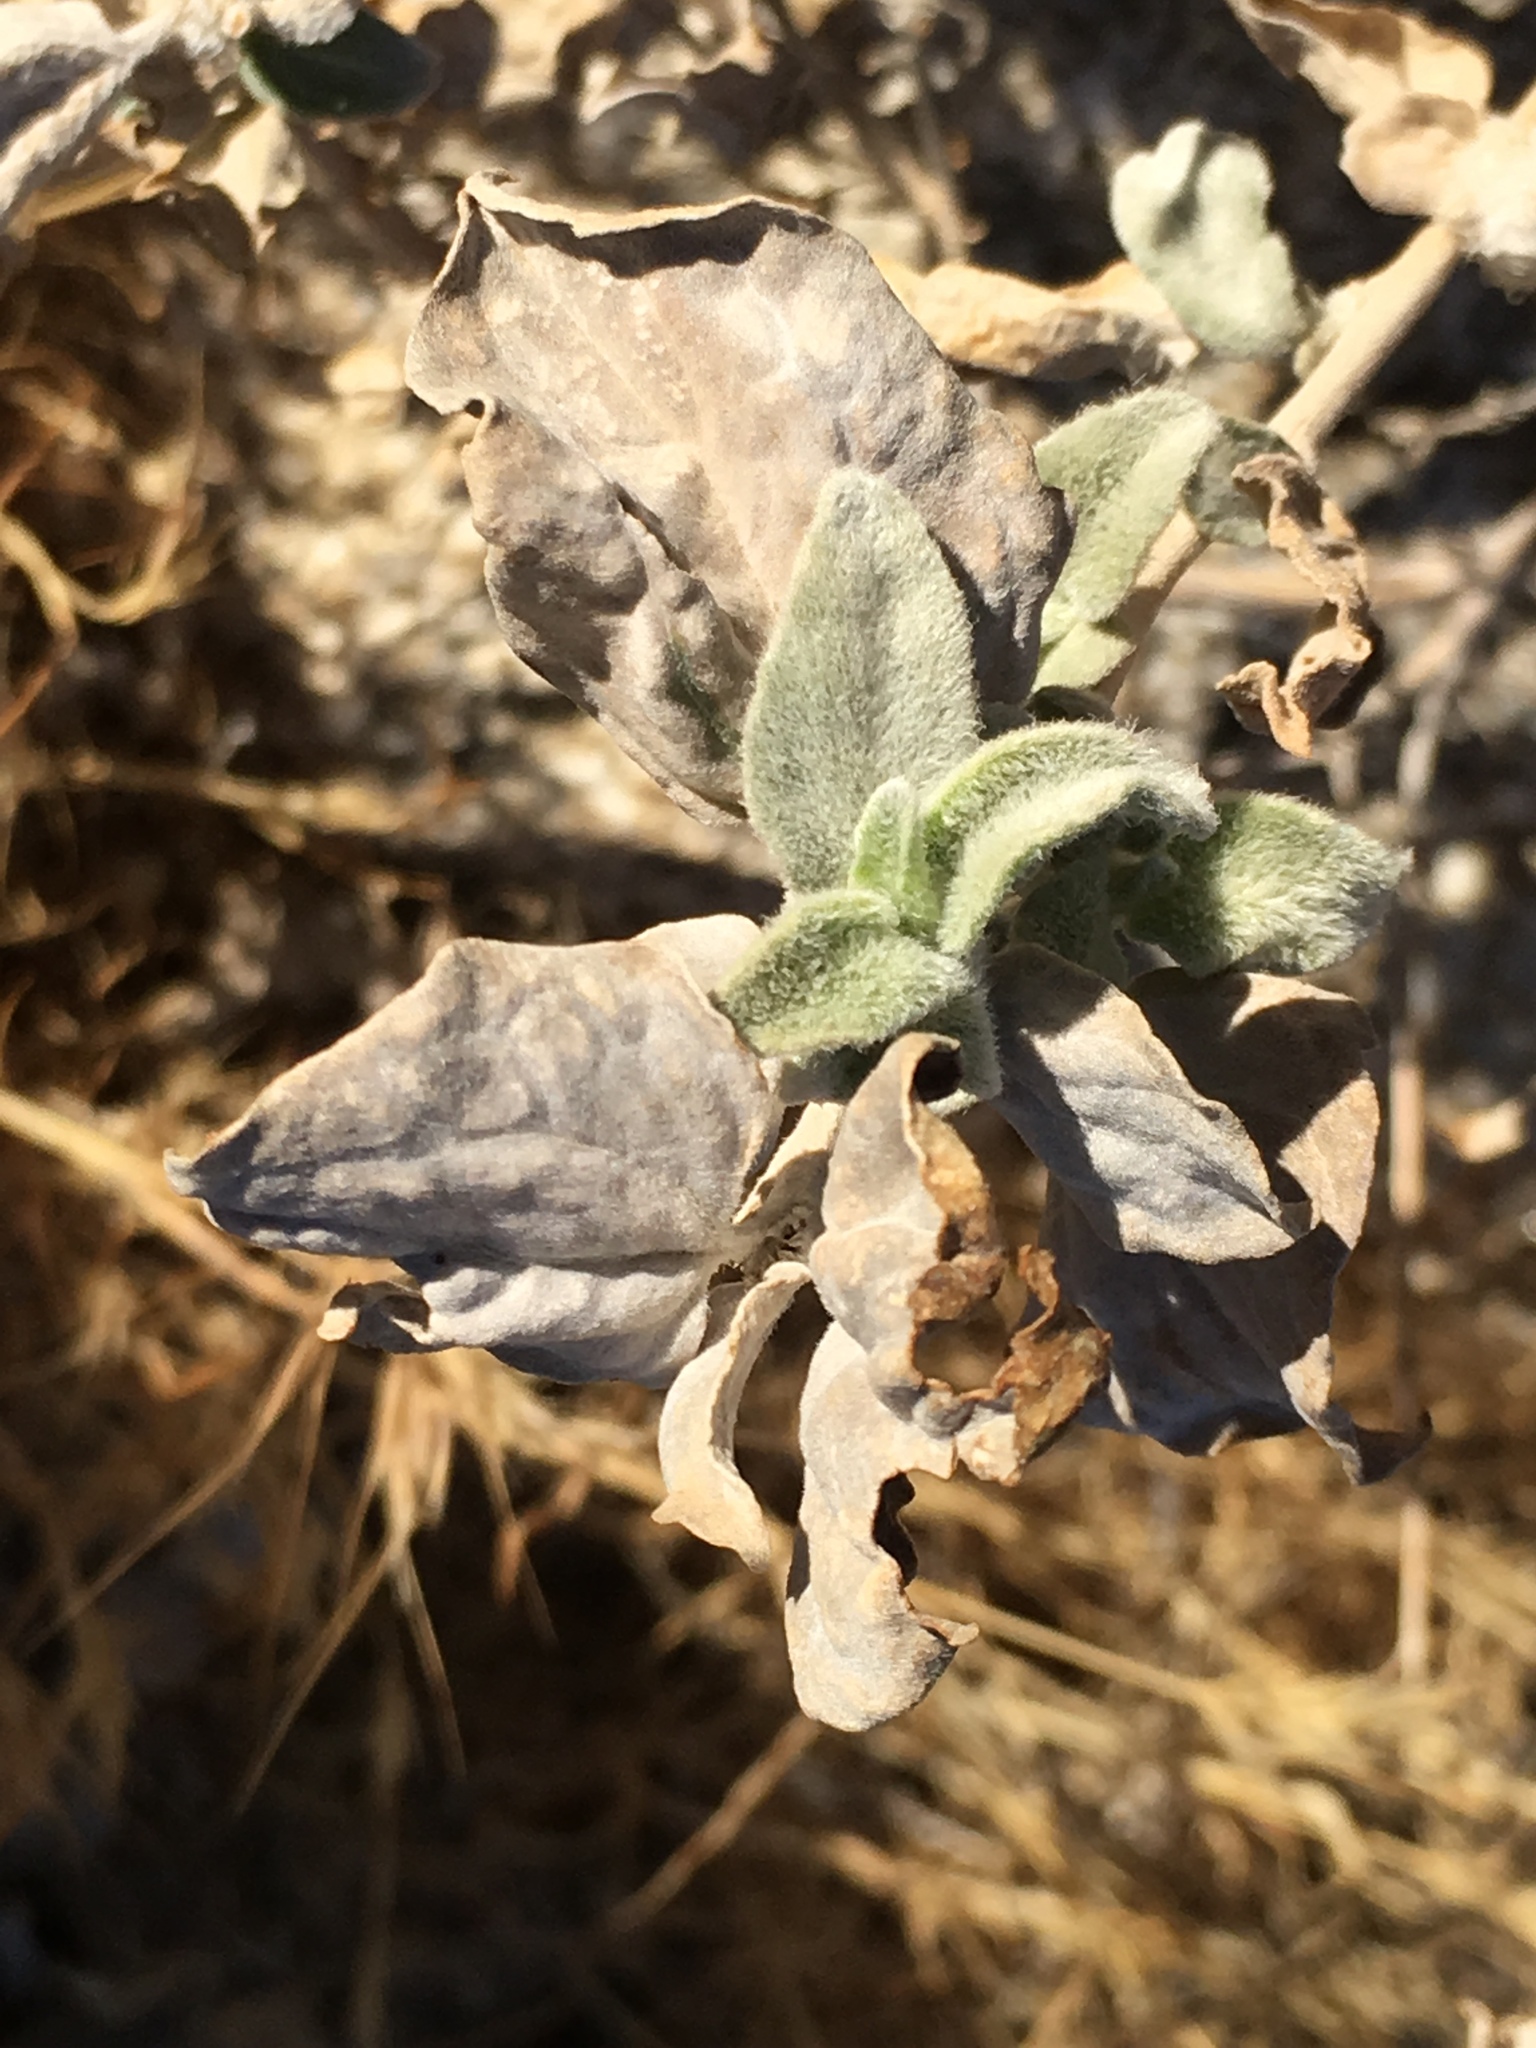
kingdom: Plantae
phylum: Tracheophyta
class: Magnoliopsida
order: Asterales
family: Asteraceae
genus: Encelia
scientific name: Encelia actoni
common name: Acton encelia
